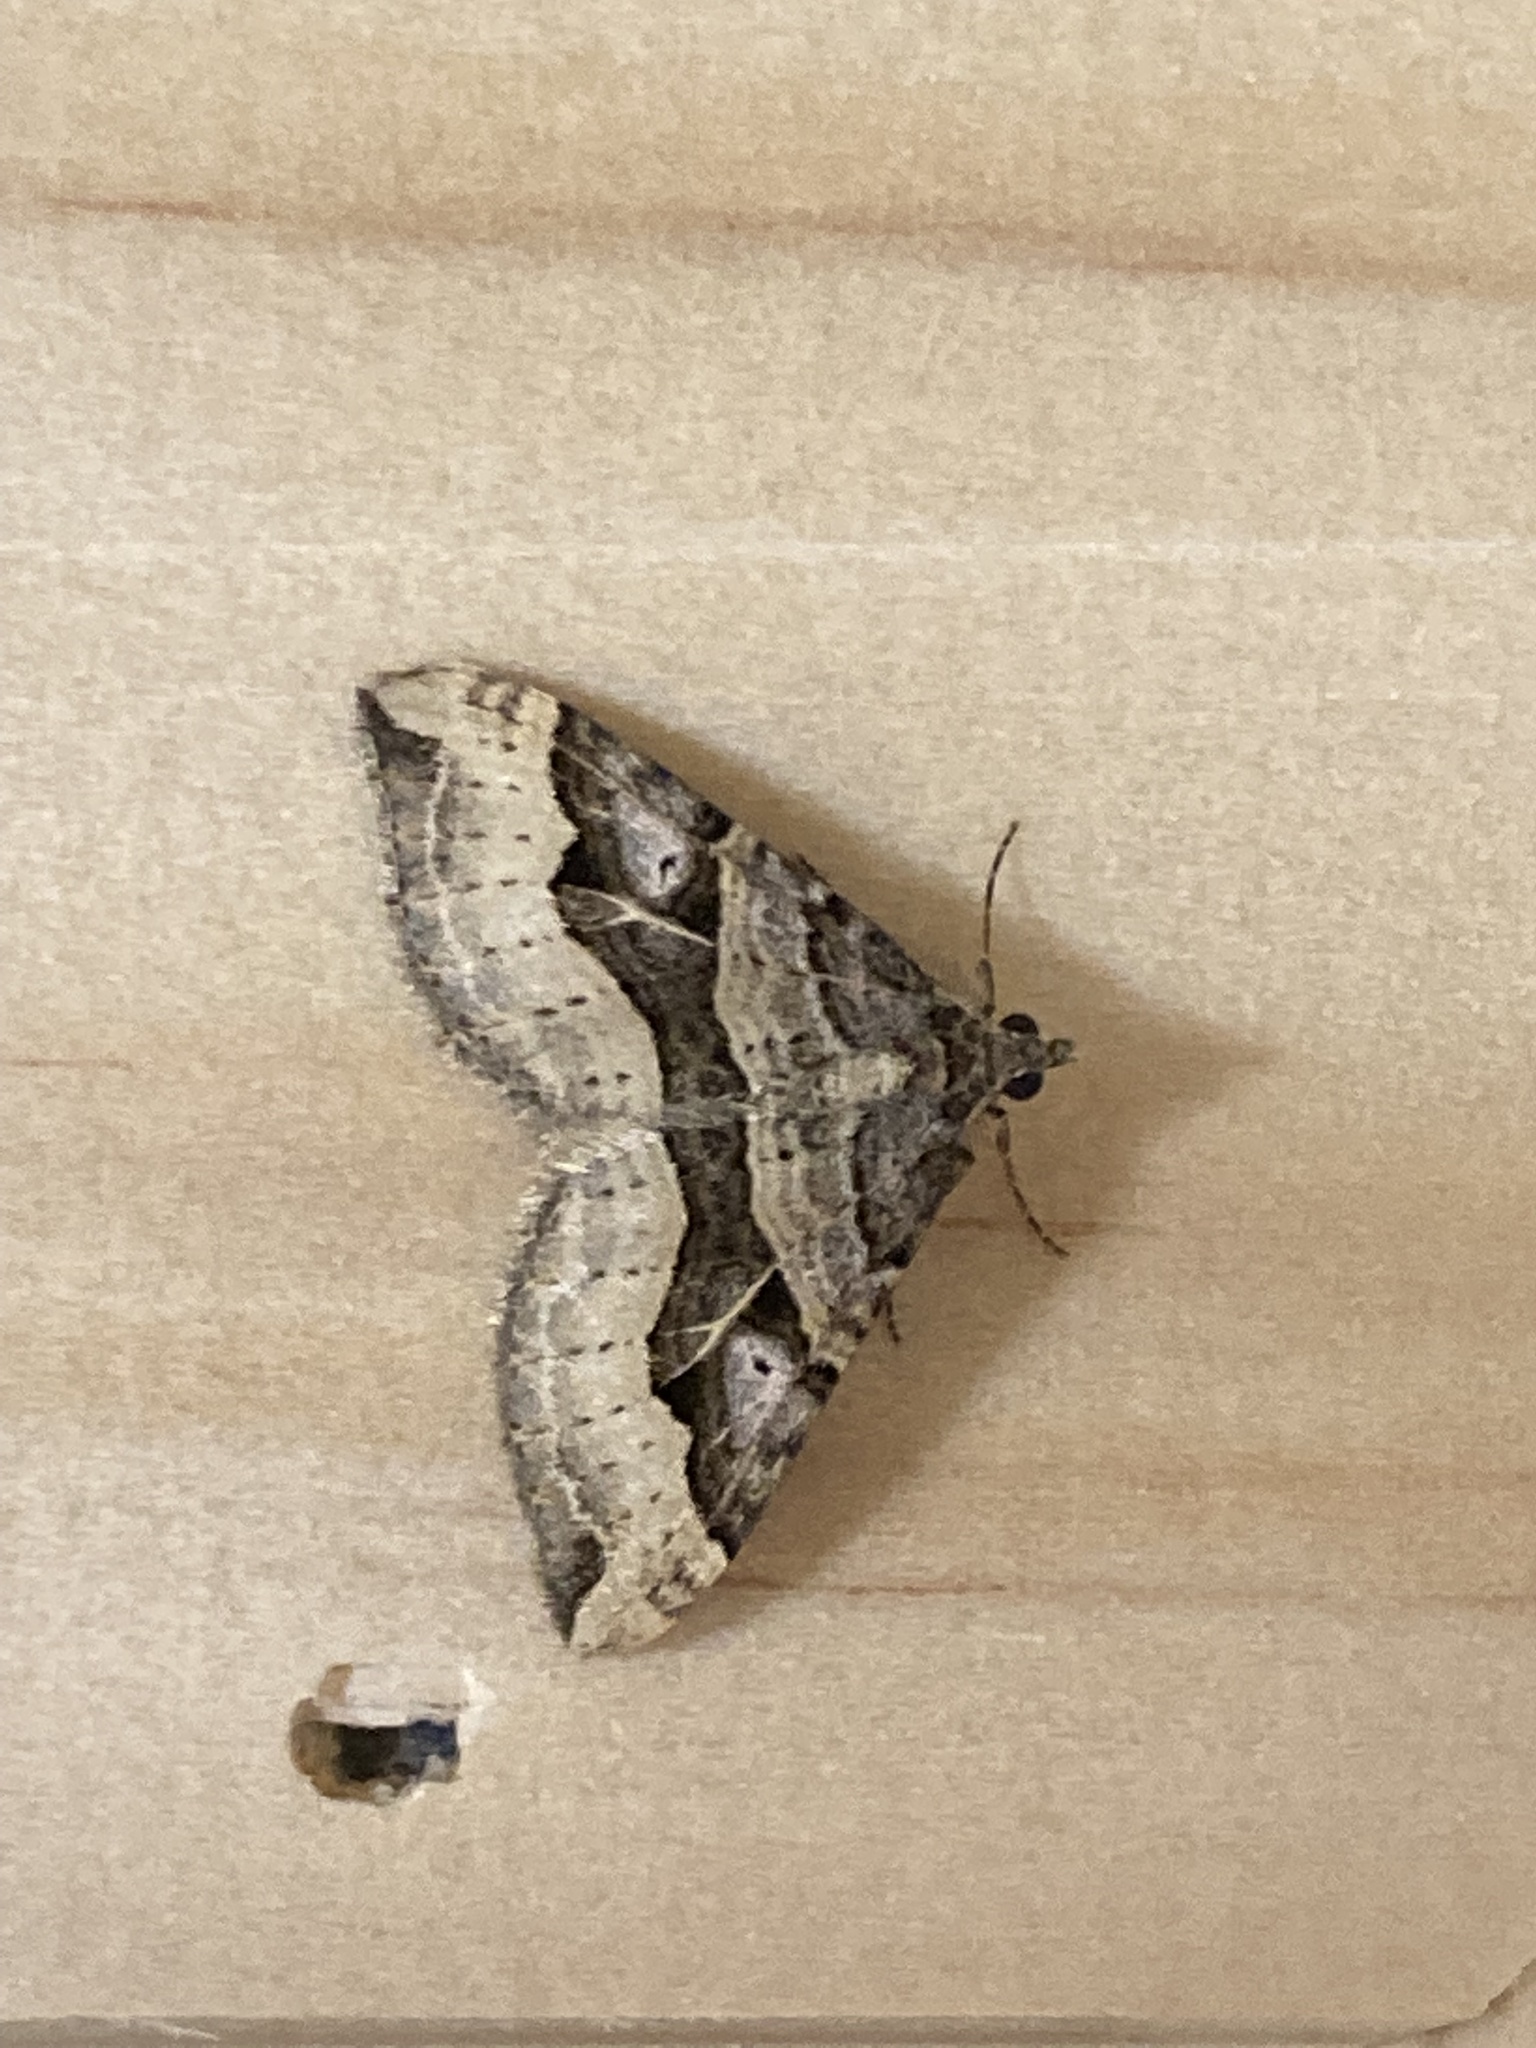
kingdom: Animalia
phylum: Arthropoda
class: Insecta
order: Lepidoptera
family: Geometridae
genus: Xanthorhoe
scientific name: Xanthorhoe semifissata
